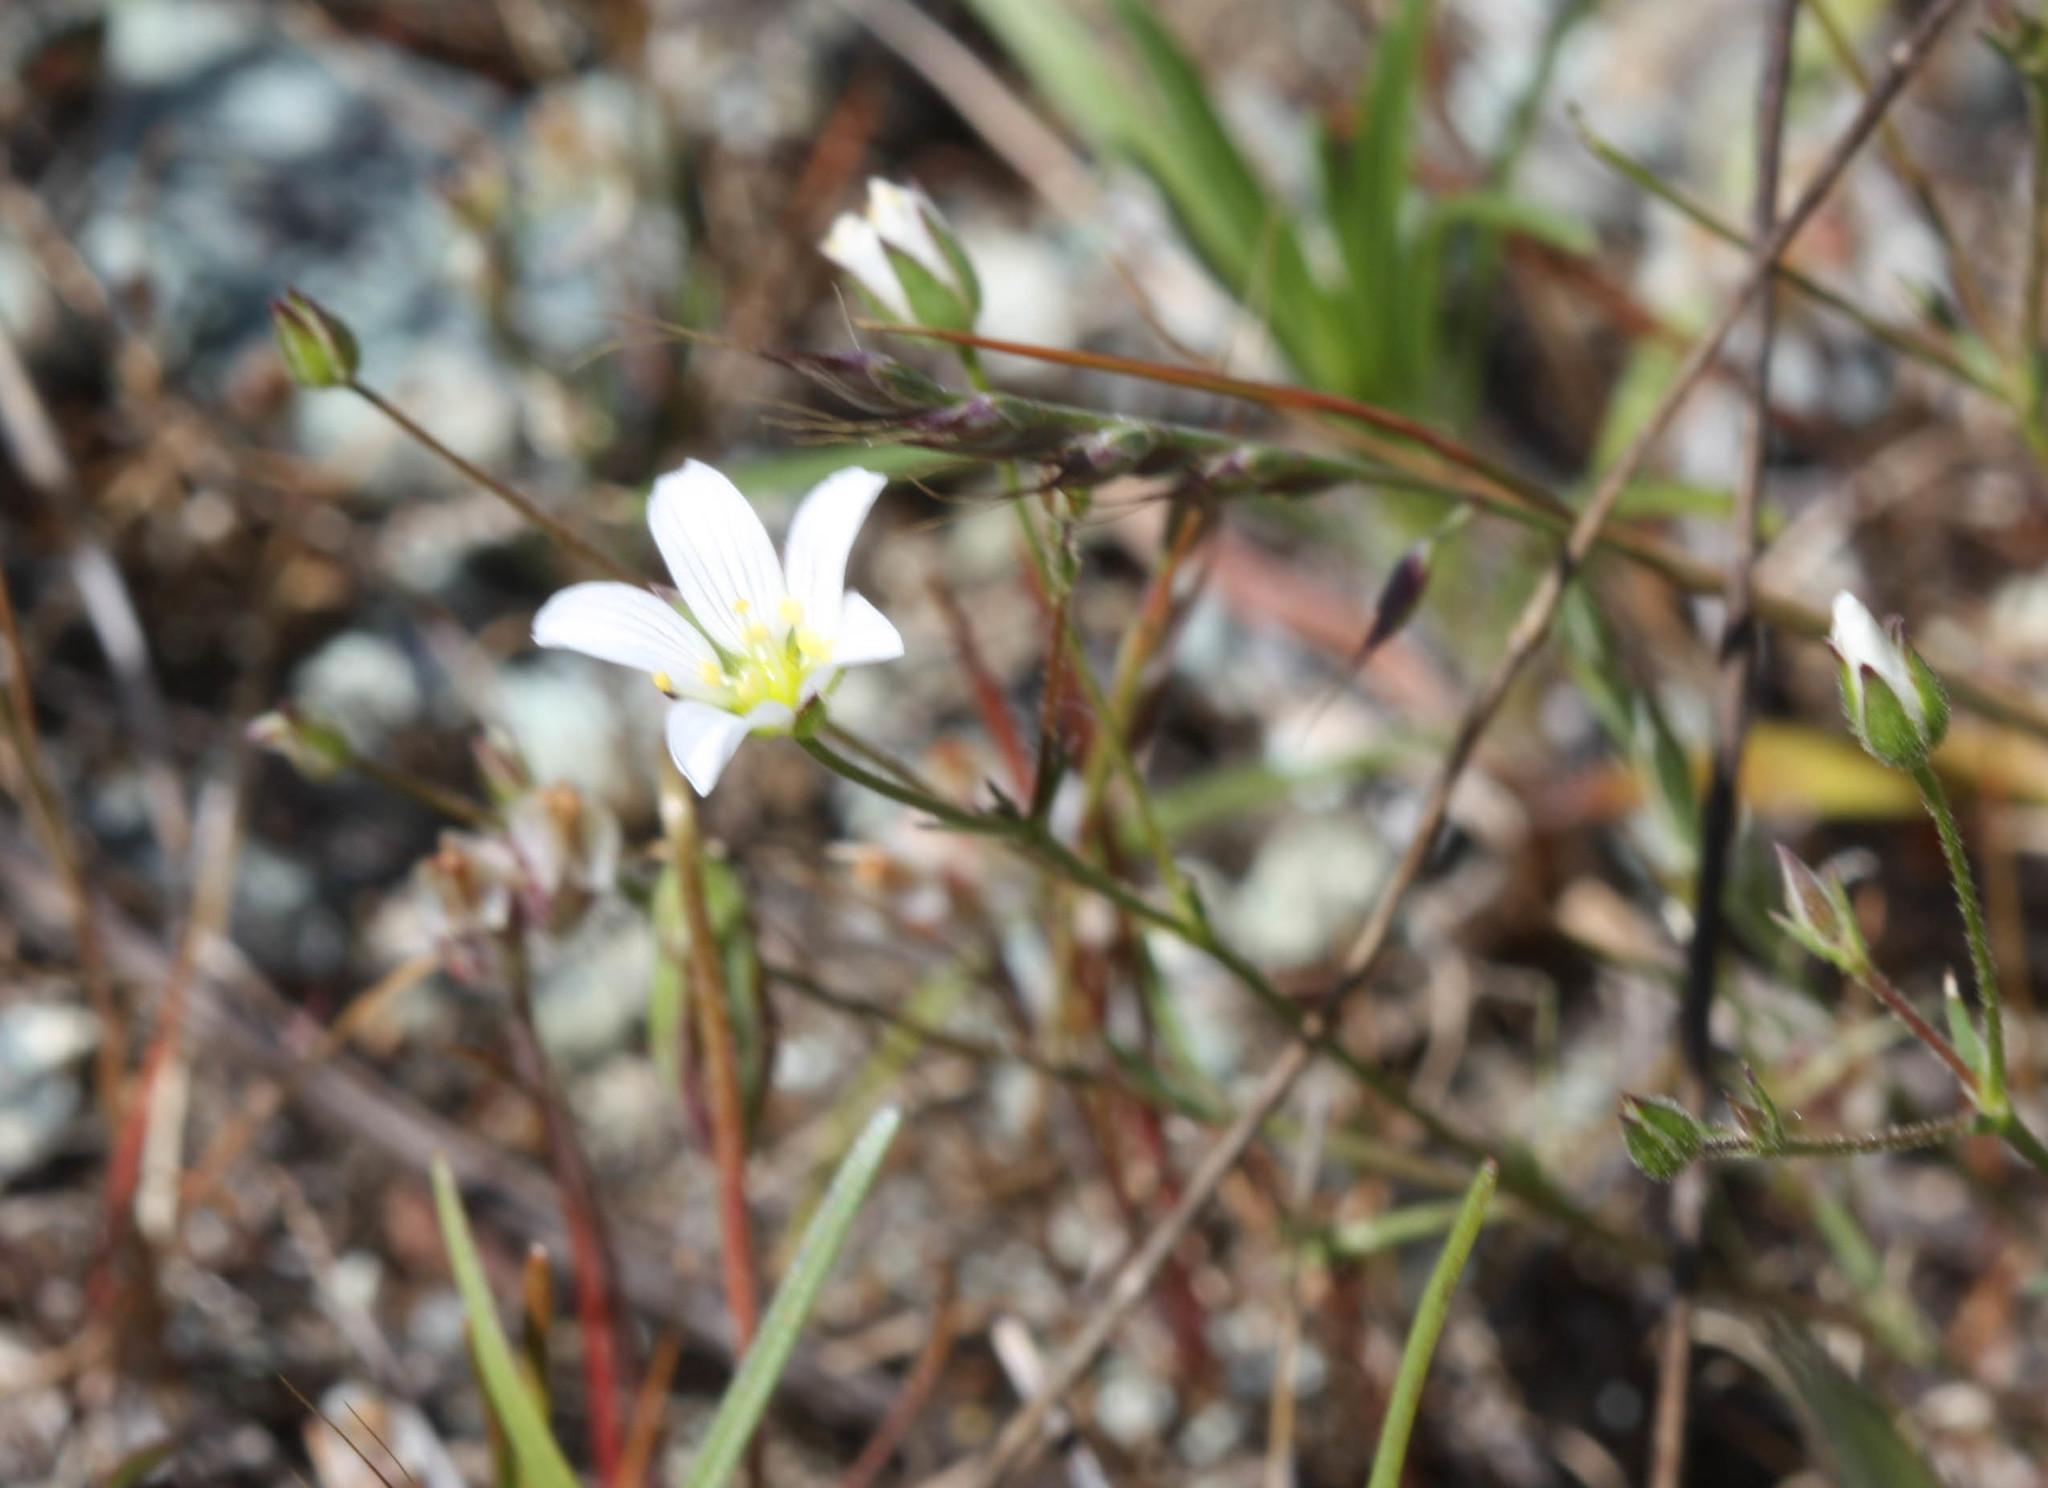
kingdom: Plantae
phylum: Tracheophyta
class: Magnoliopsida
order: Caryophyllales
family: Caryophyllaceae
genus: Sabulina
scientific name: Sabulina douglasii
